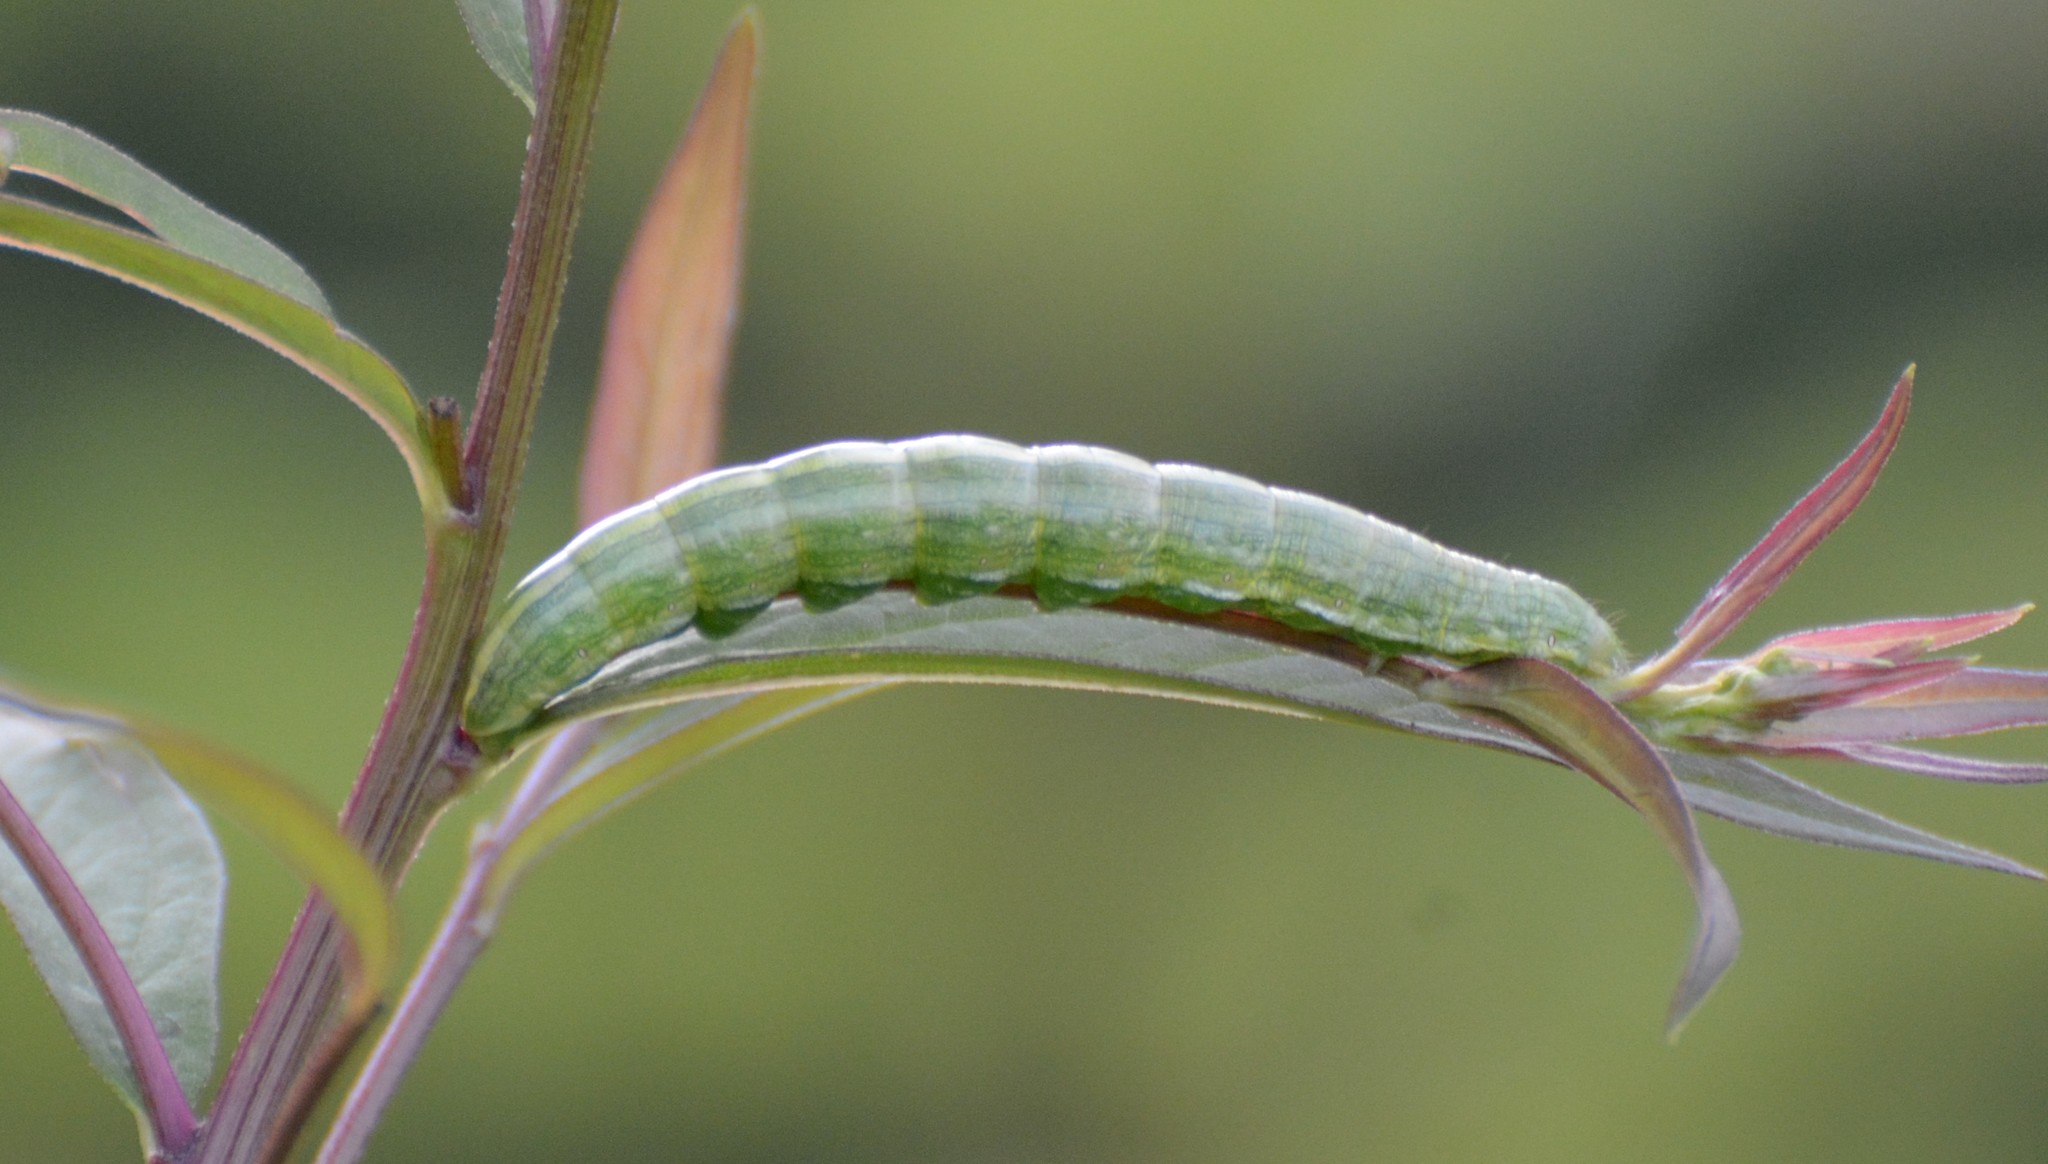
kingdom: Animalia
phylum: Arthropoda
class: Insecta
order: Lepidoptera
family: Noctuidae
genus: Cucullia
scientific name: Cucullia florea
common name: Gray hooded owlet
